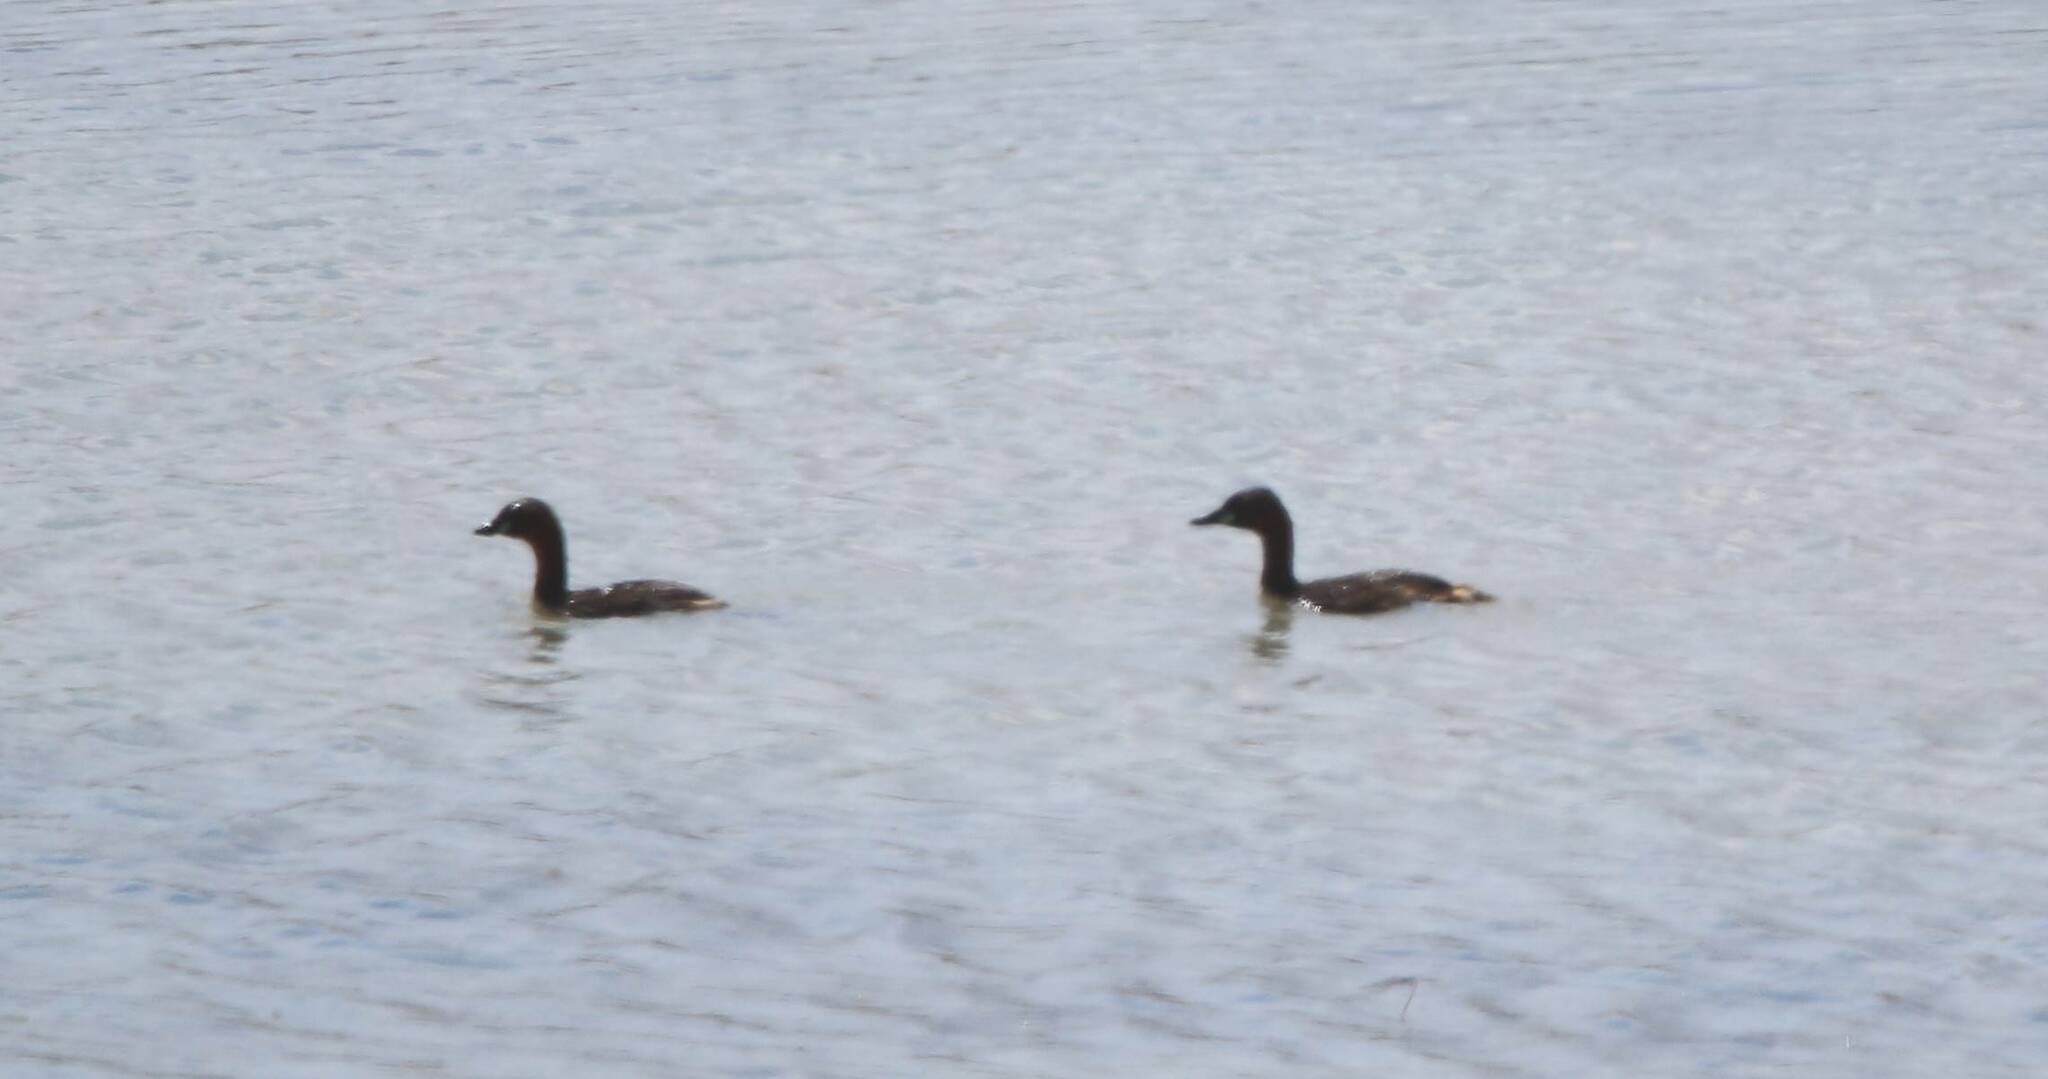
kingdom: Animalia
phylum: Chordata
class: Aves
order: Podicipediformes
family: Podicipedidae
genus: Tachybaptus
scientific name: Tachybaptus ruficollis
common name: Little grebe
